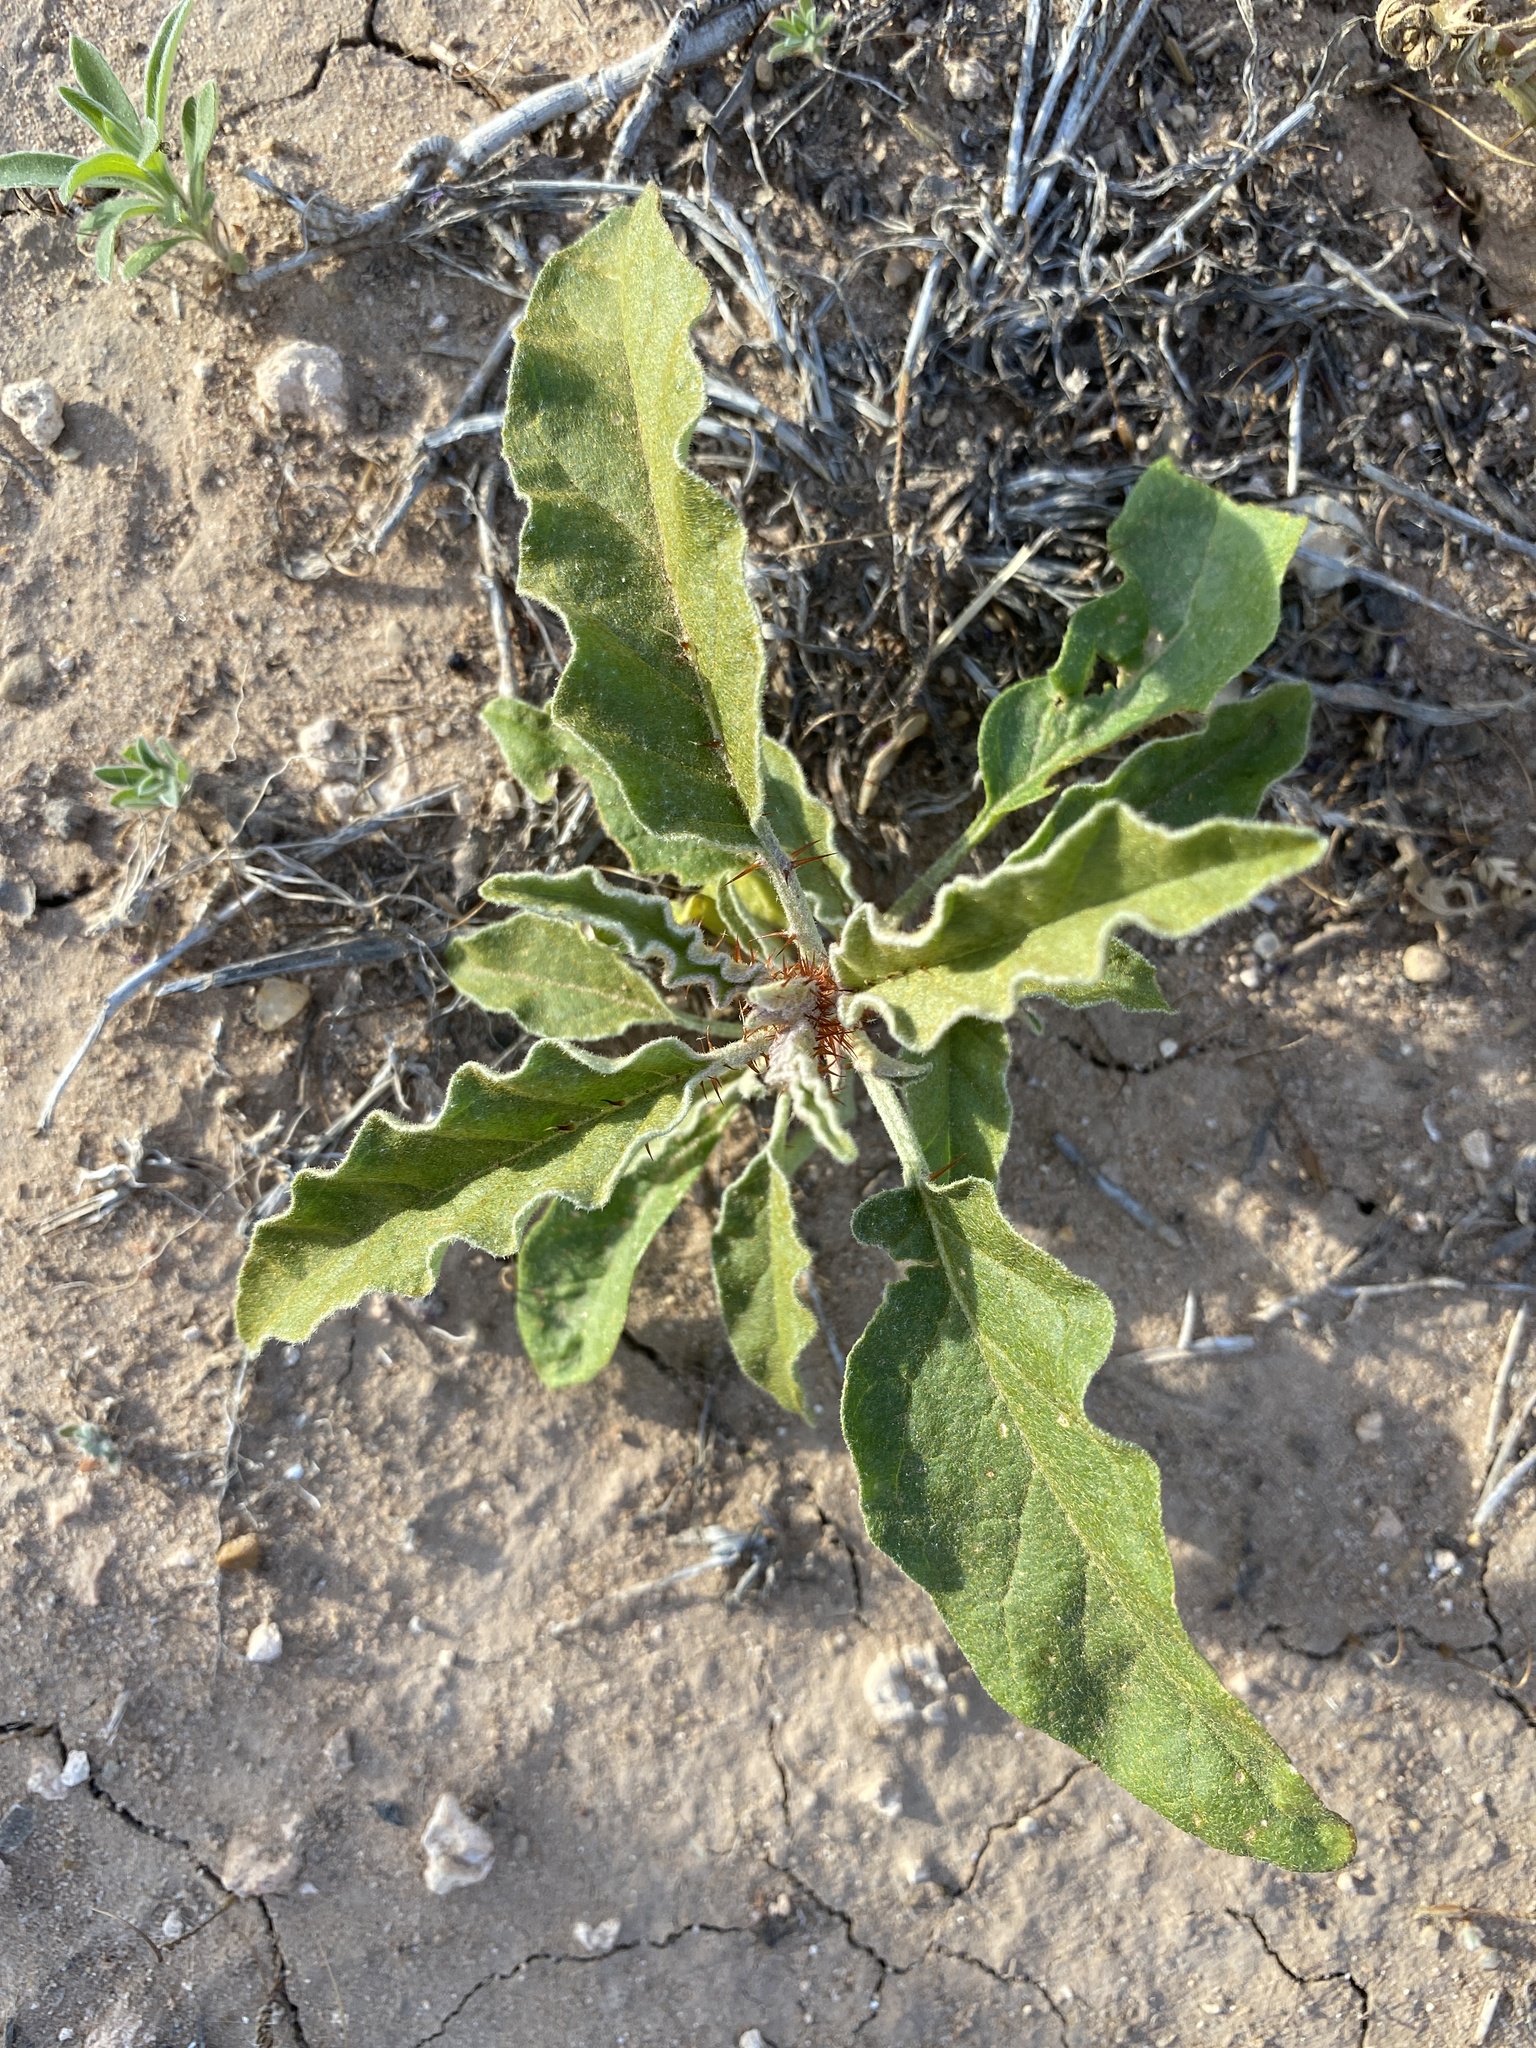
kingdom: Plantae
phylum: Tracheophyta
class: Magnoliopsida
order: Solanales
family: Solanaceae
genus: Solanum
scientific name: Solanum elaeagnifolium
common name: Silverleaf nightshade
